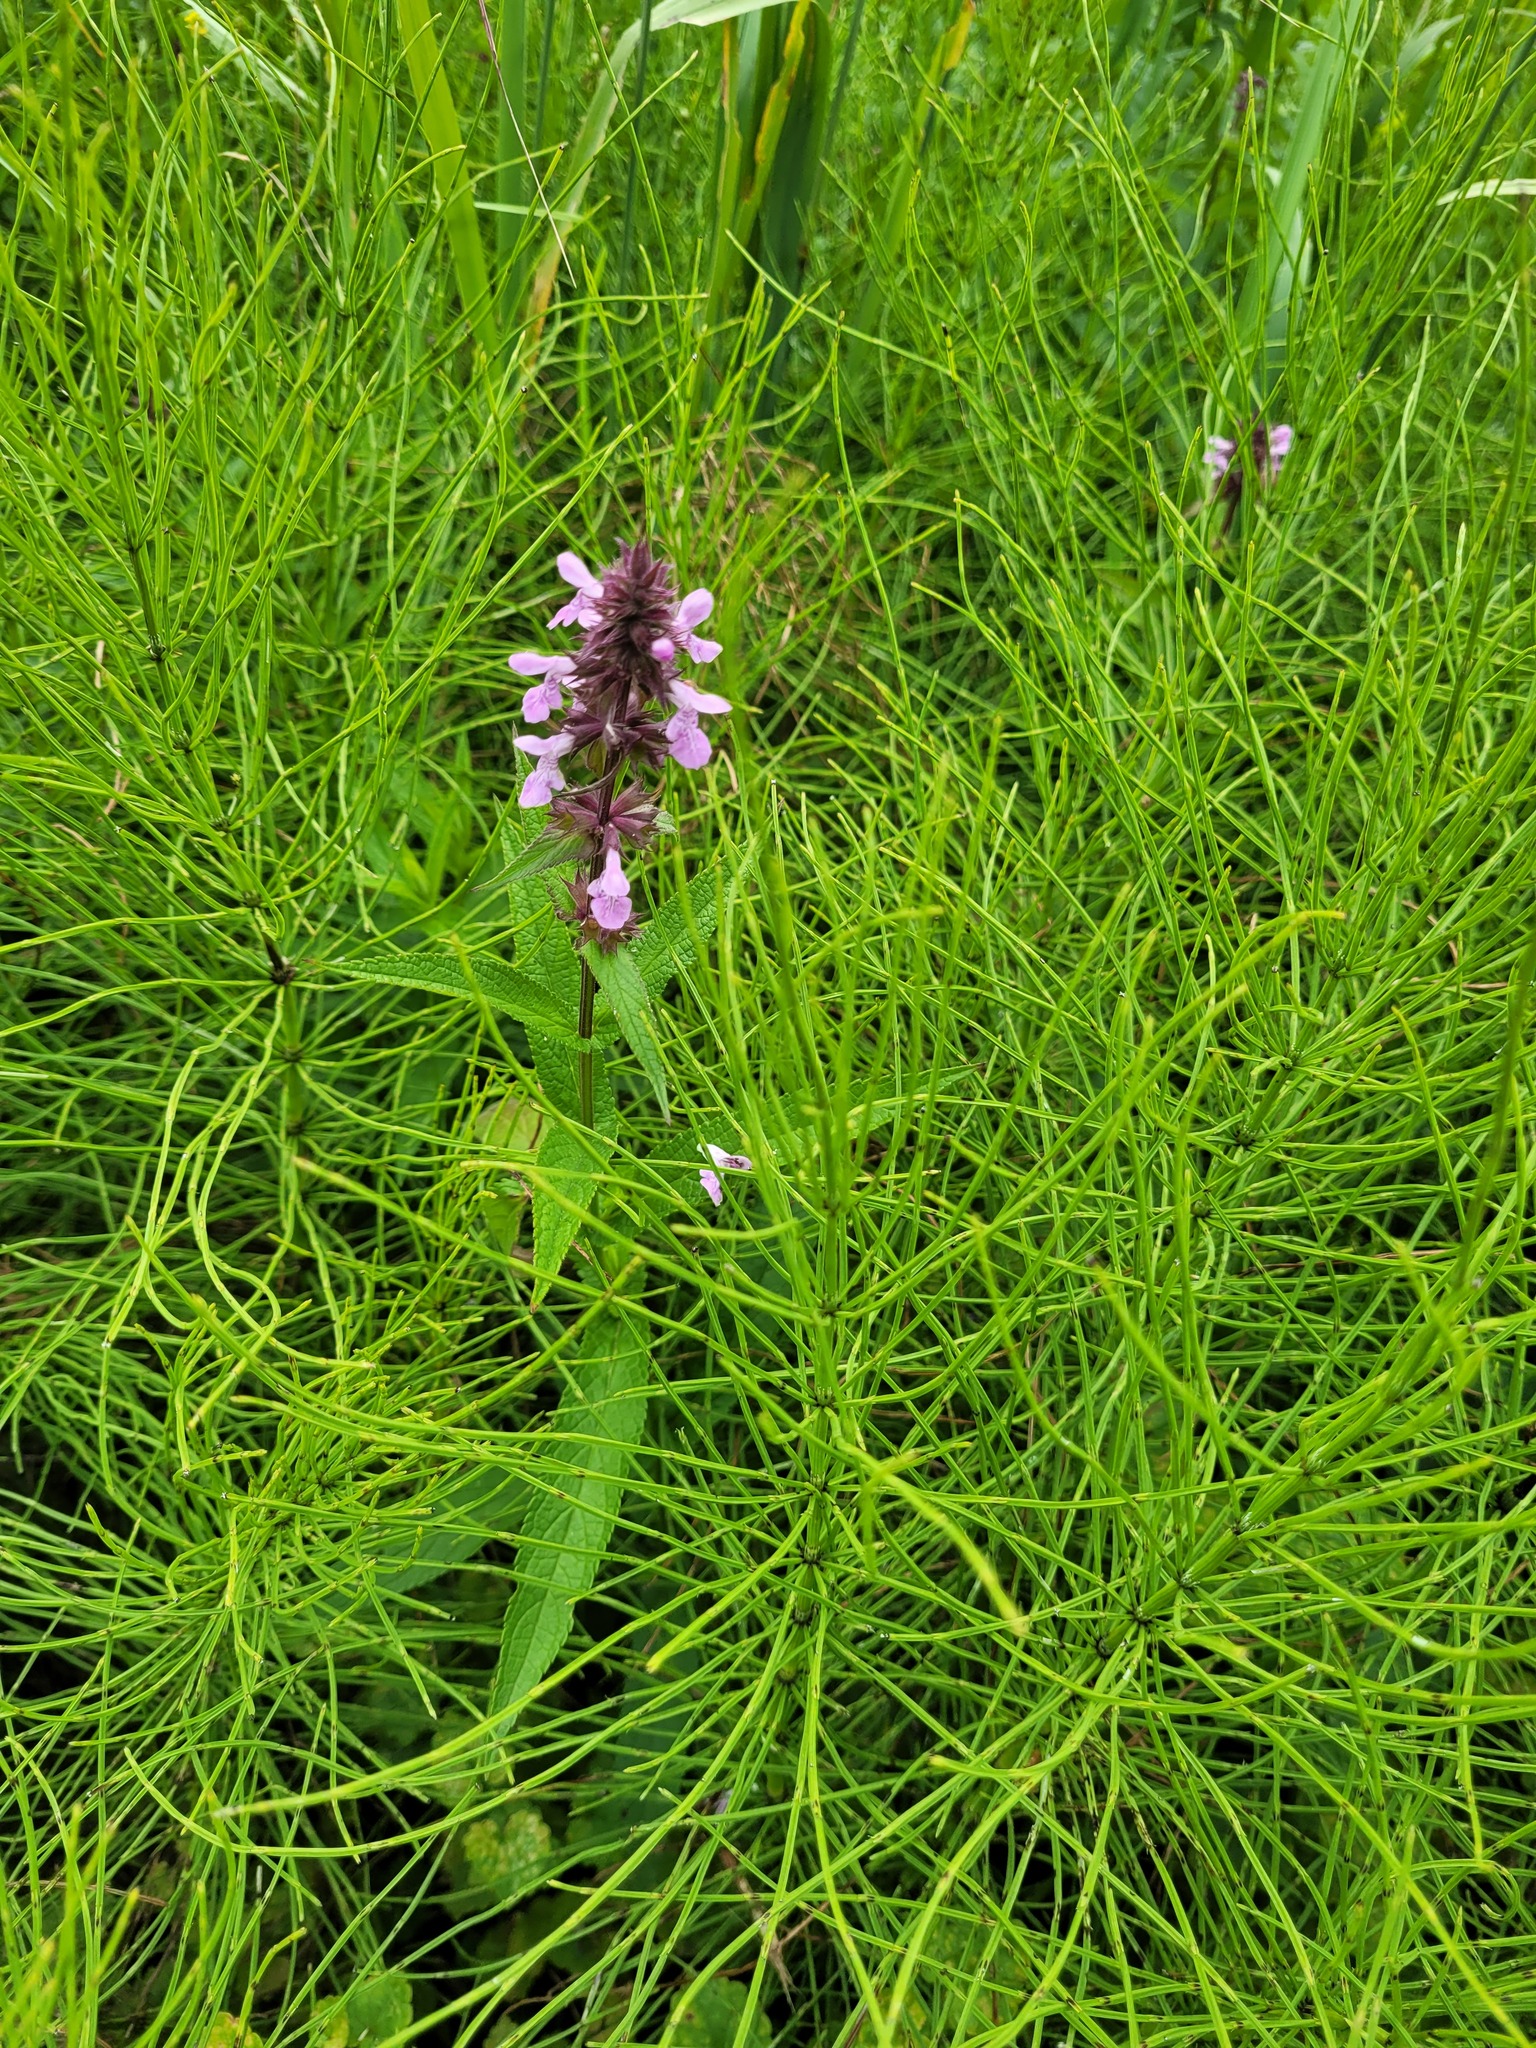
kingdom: Plantae
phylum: Tracheophyta
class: Magnoliopsida
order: Lamiales
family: Lamiaceae
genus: Stachys
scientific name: Stachys palustris
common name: Marsh woundwort
